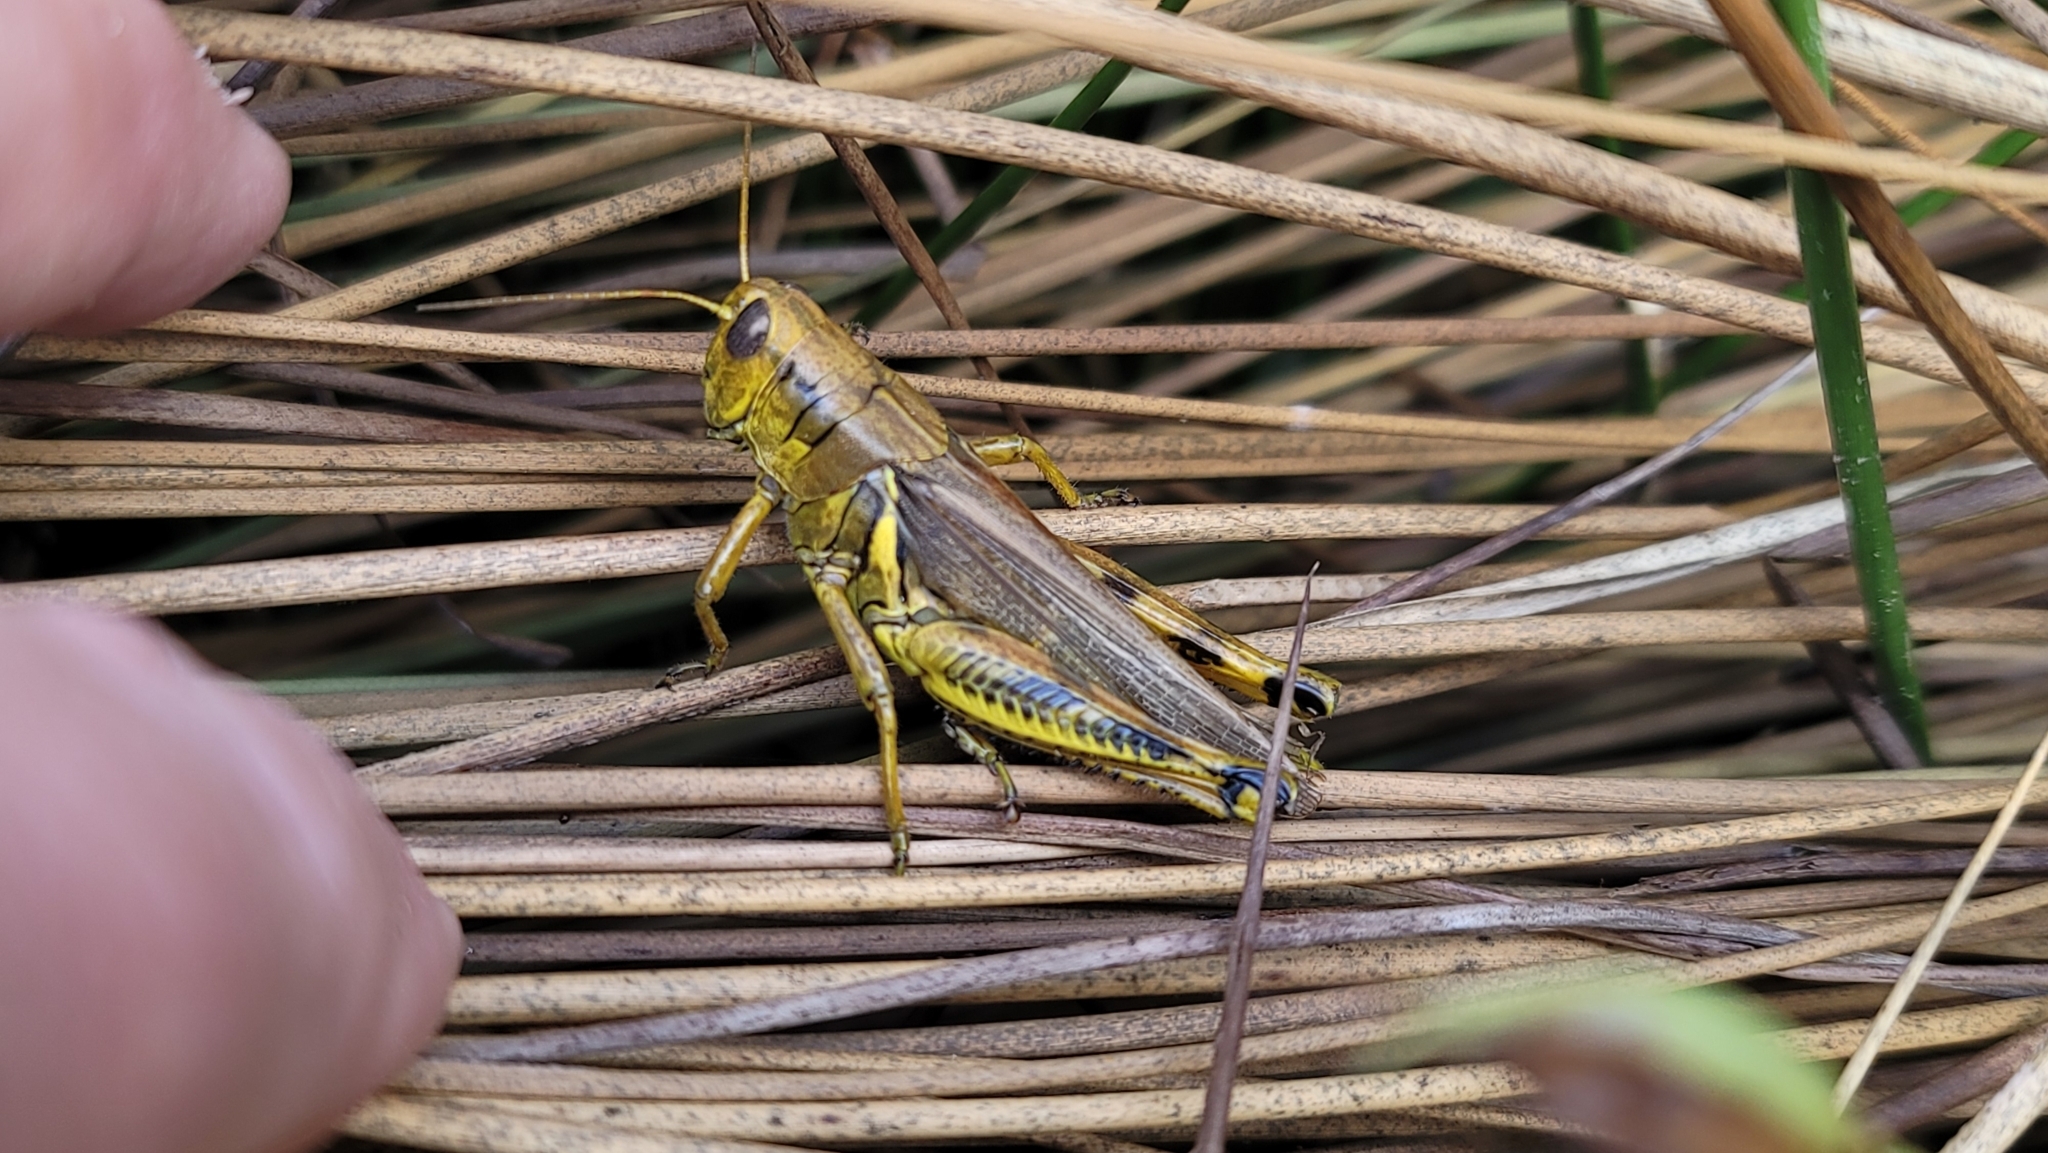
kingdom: Animalia
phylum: Arthropoda
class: Insecta
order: Orthoptera
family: Acrididae
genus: Melanoplus
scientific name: Melanoplus differentialis
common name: Differential grasshopper
